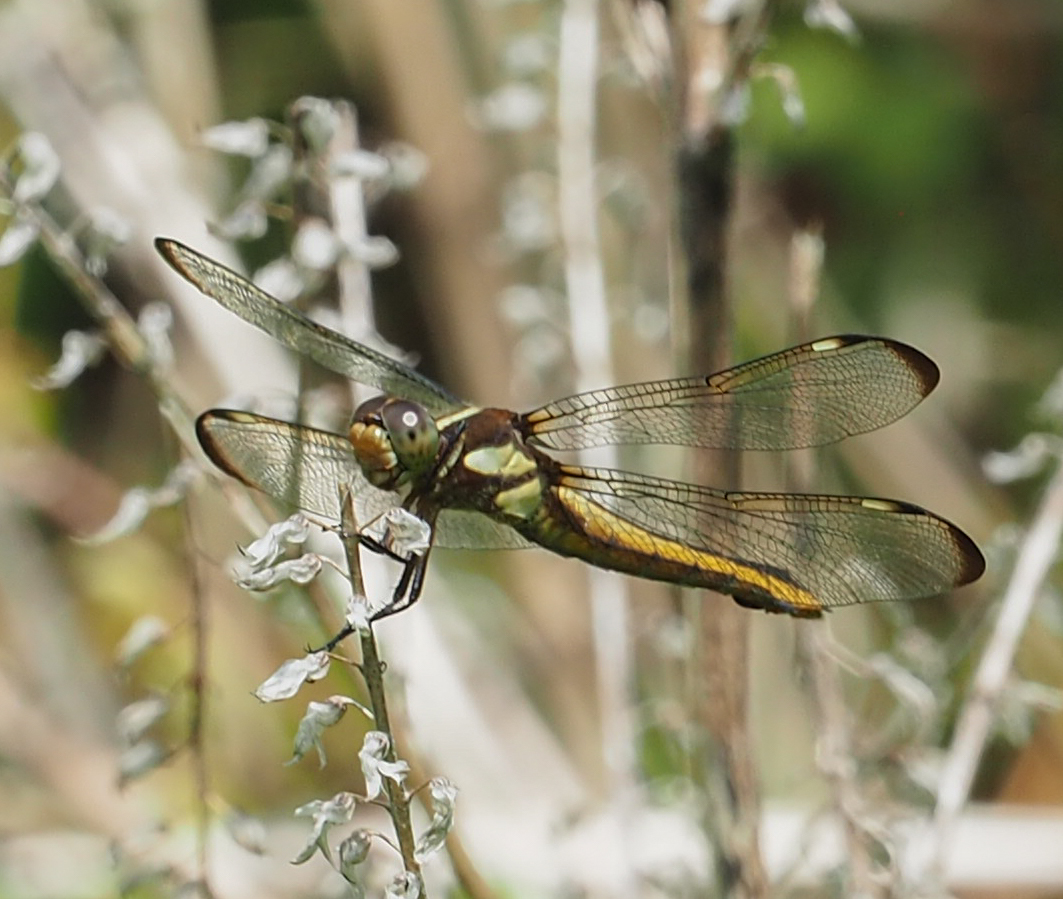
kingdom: Animalia
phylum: Arthropoda
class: Insecta
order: Odonata
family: Libellulidae
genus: Libellula
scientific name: Libellula cyanea
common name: Spangled skimmer
